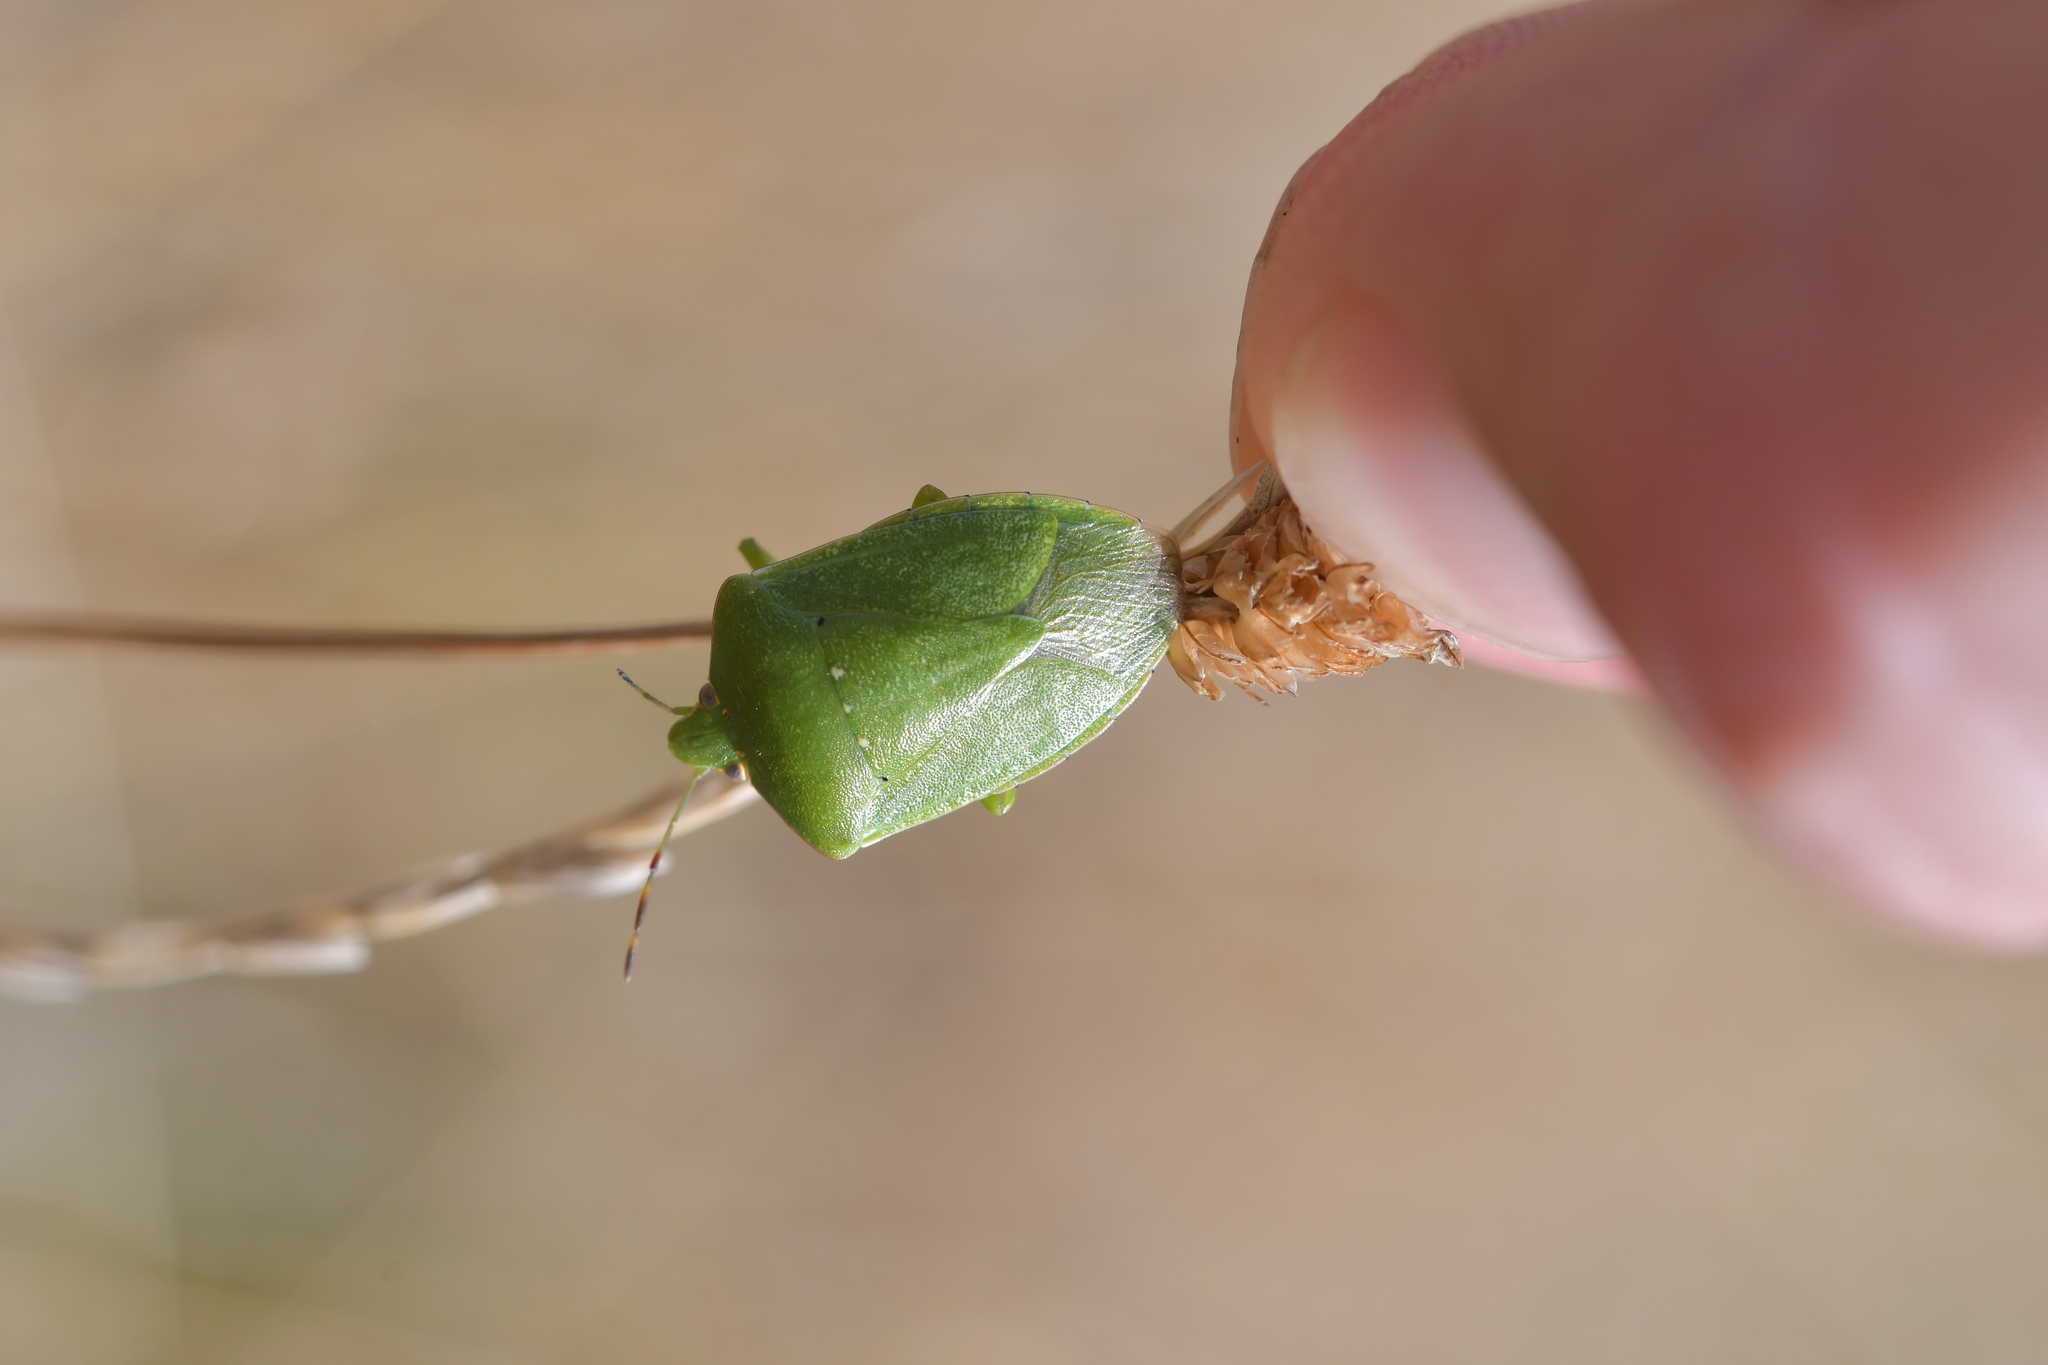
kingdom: Animalia
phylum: Arthropoda
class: Insecta
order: Hemiptera
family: Pentatomidae
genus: Nezara
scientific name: Nezara viridula
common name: Southern green stink bug
